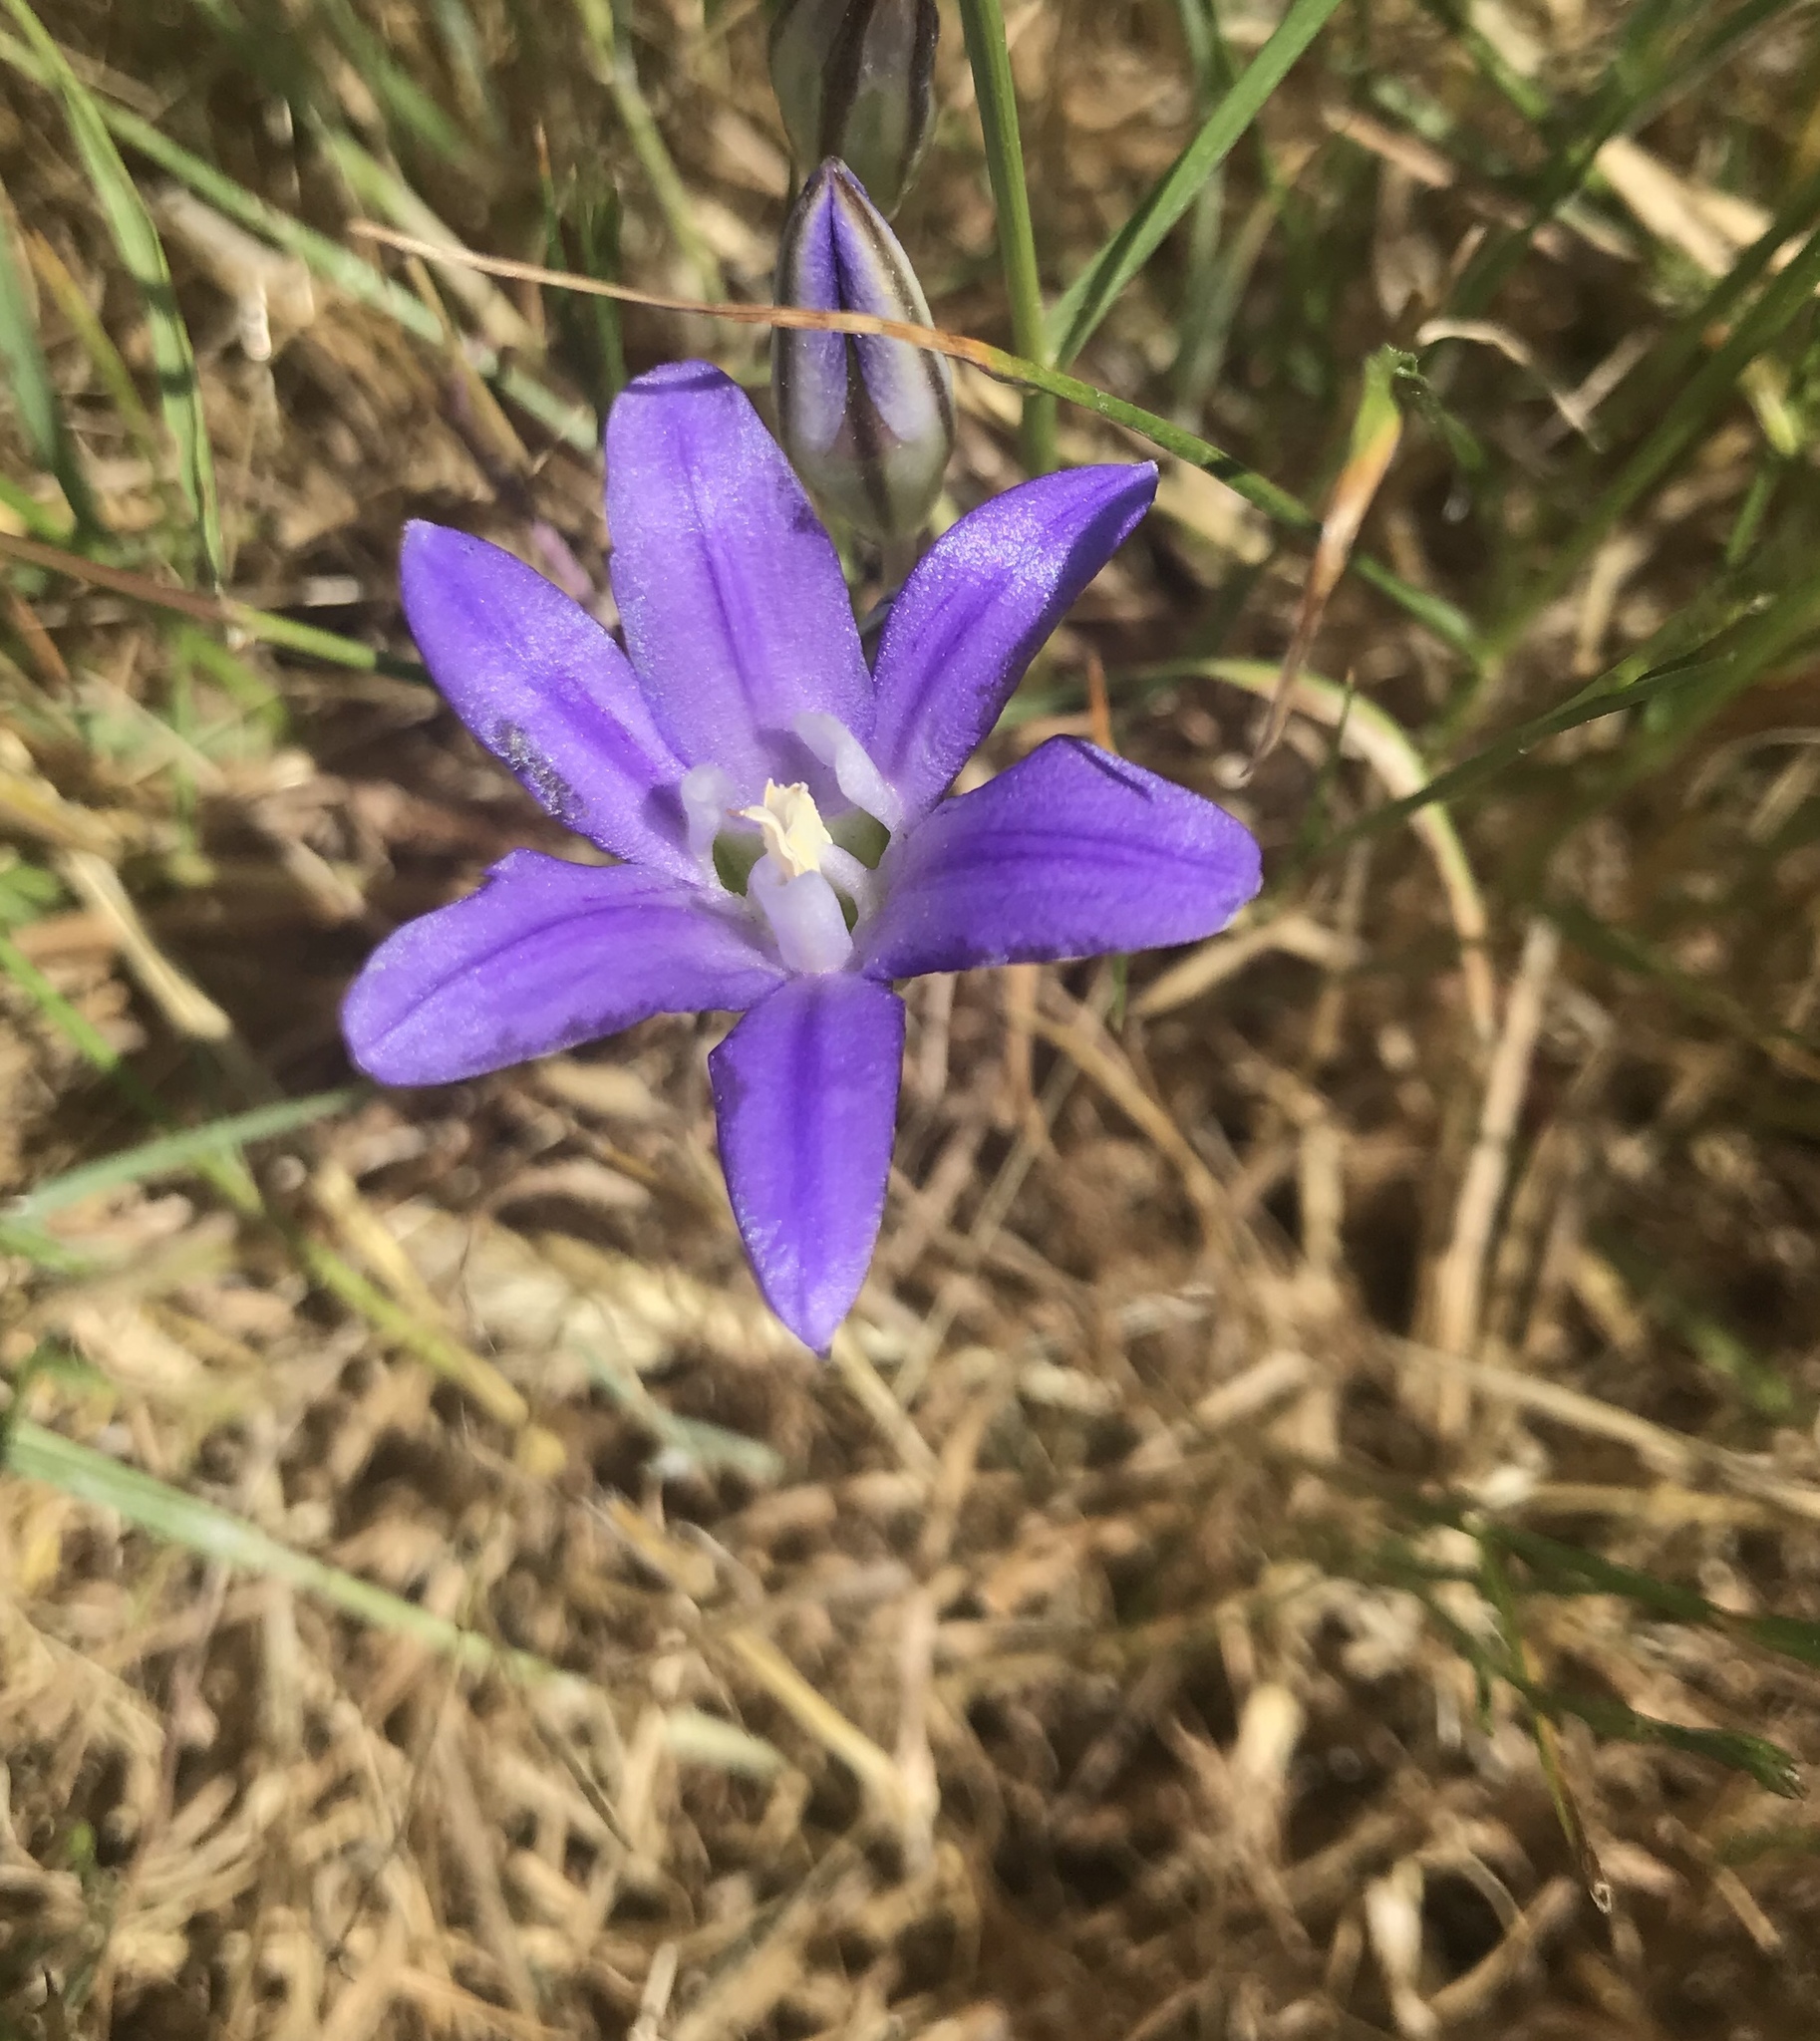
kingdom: Plantae
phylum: Tracheophyta
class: Liliopsida
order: Asparagales
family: Asparagaceae
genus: Brodiaea
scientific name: Brodiaea elegans
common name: Elegant cluster-lily
